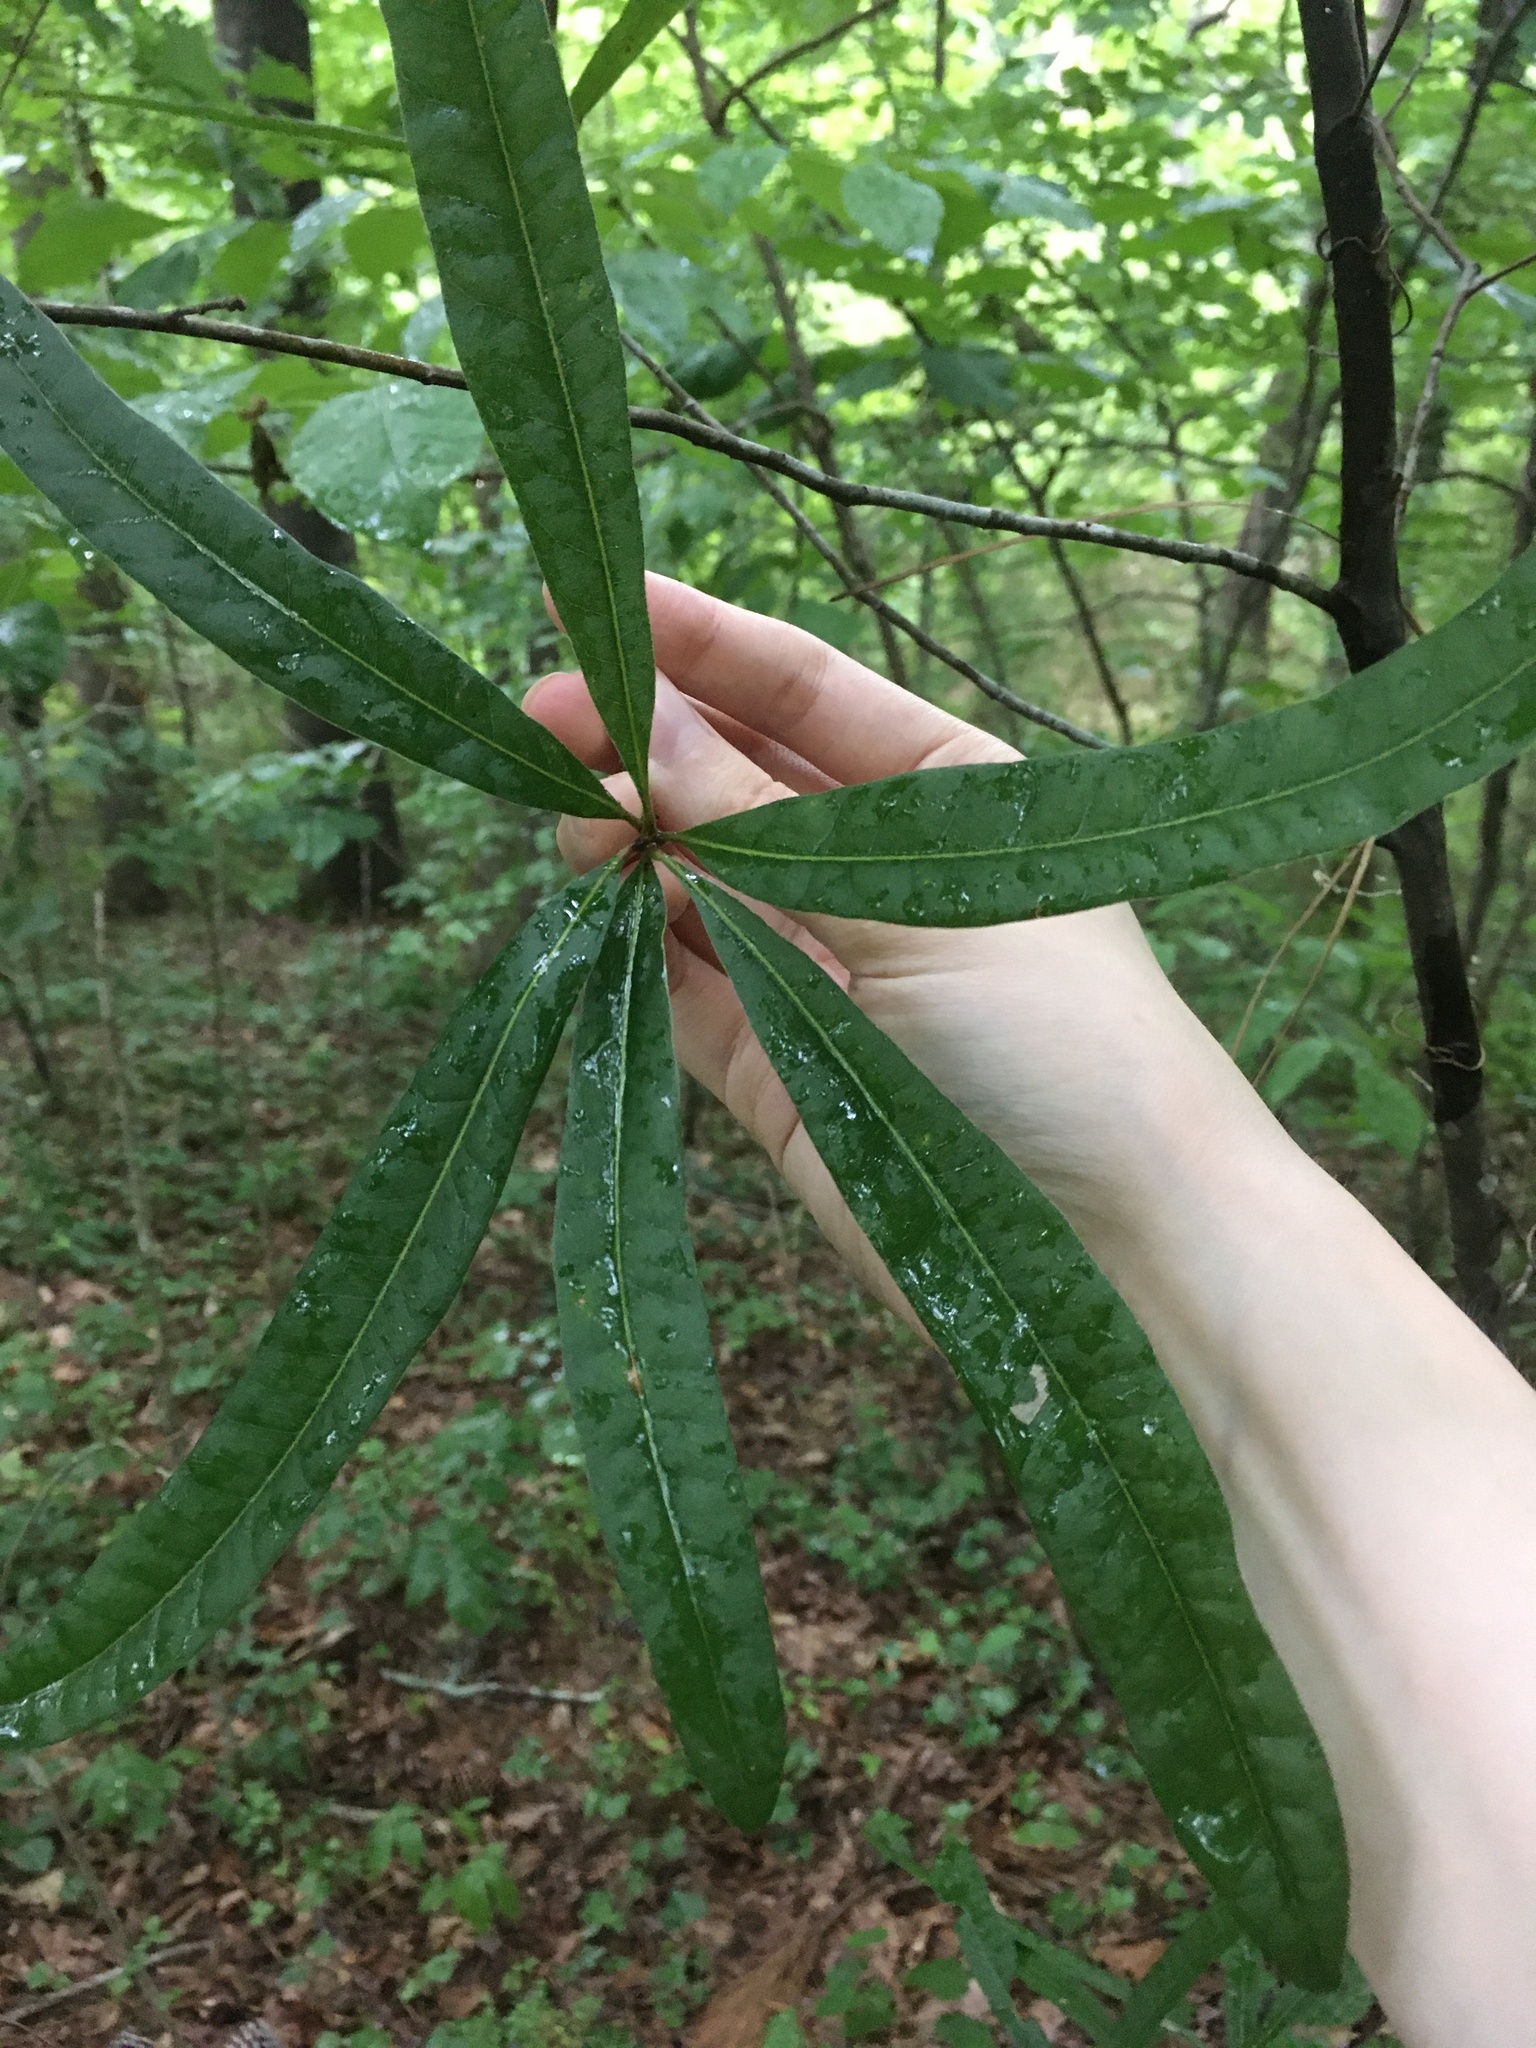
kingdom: Plantae
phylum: Tracheophyta
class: Magnoliopsida
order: Fagales
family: Fagaceae
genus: Quercus
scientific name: Quercus phellos
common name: Willow oak
